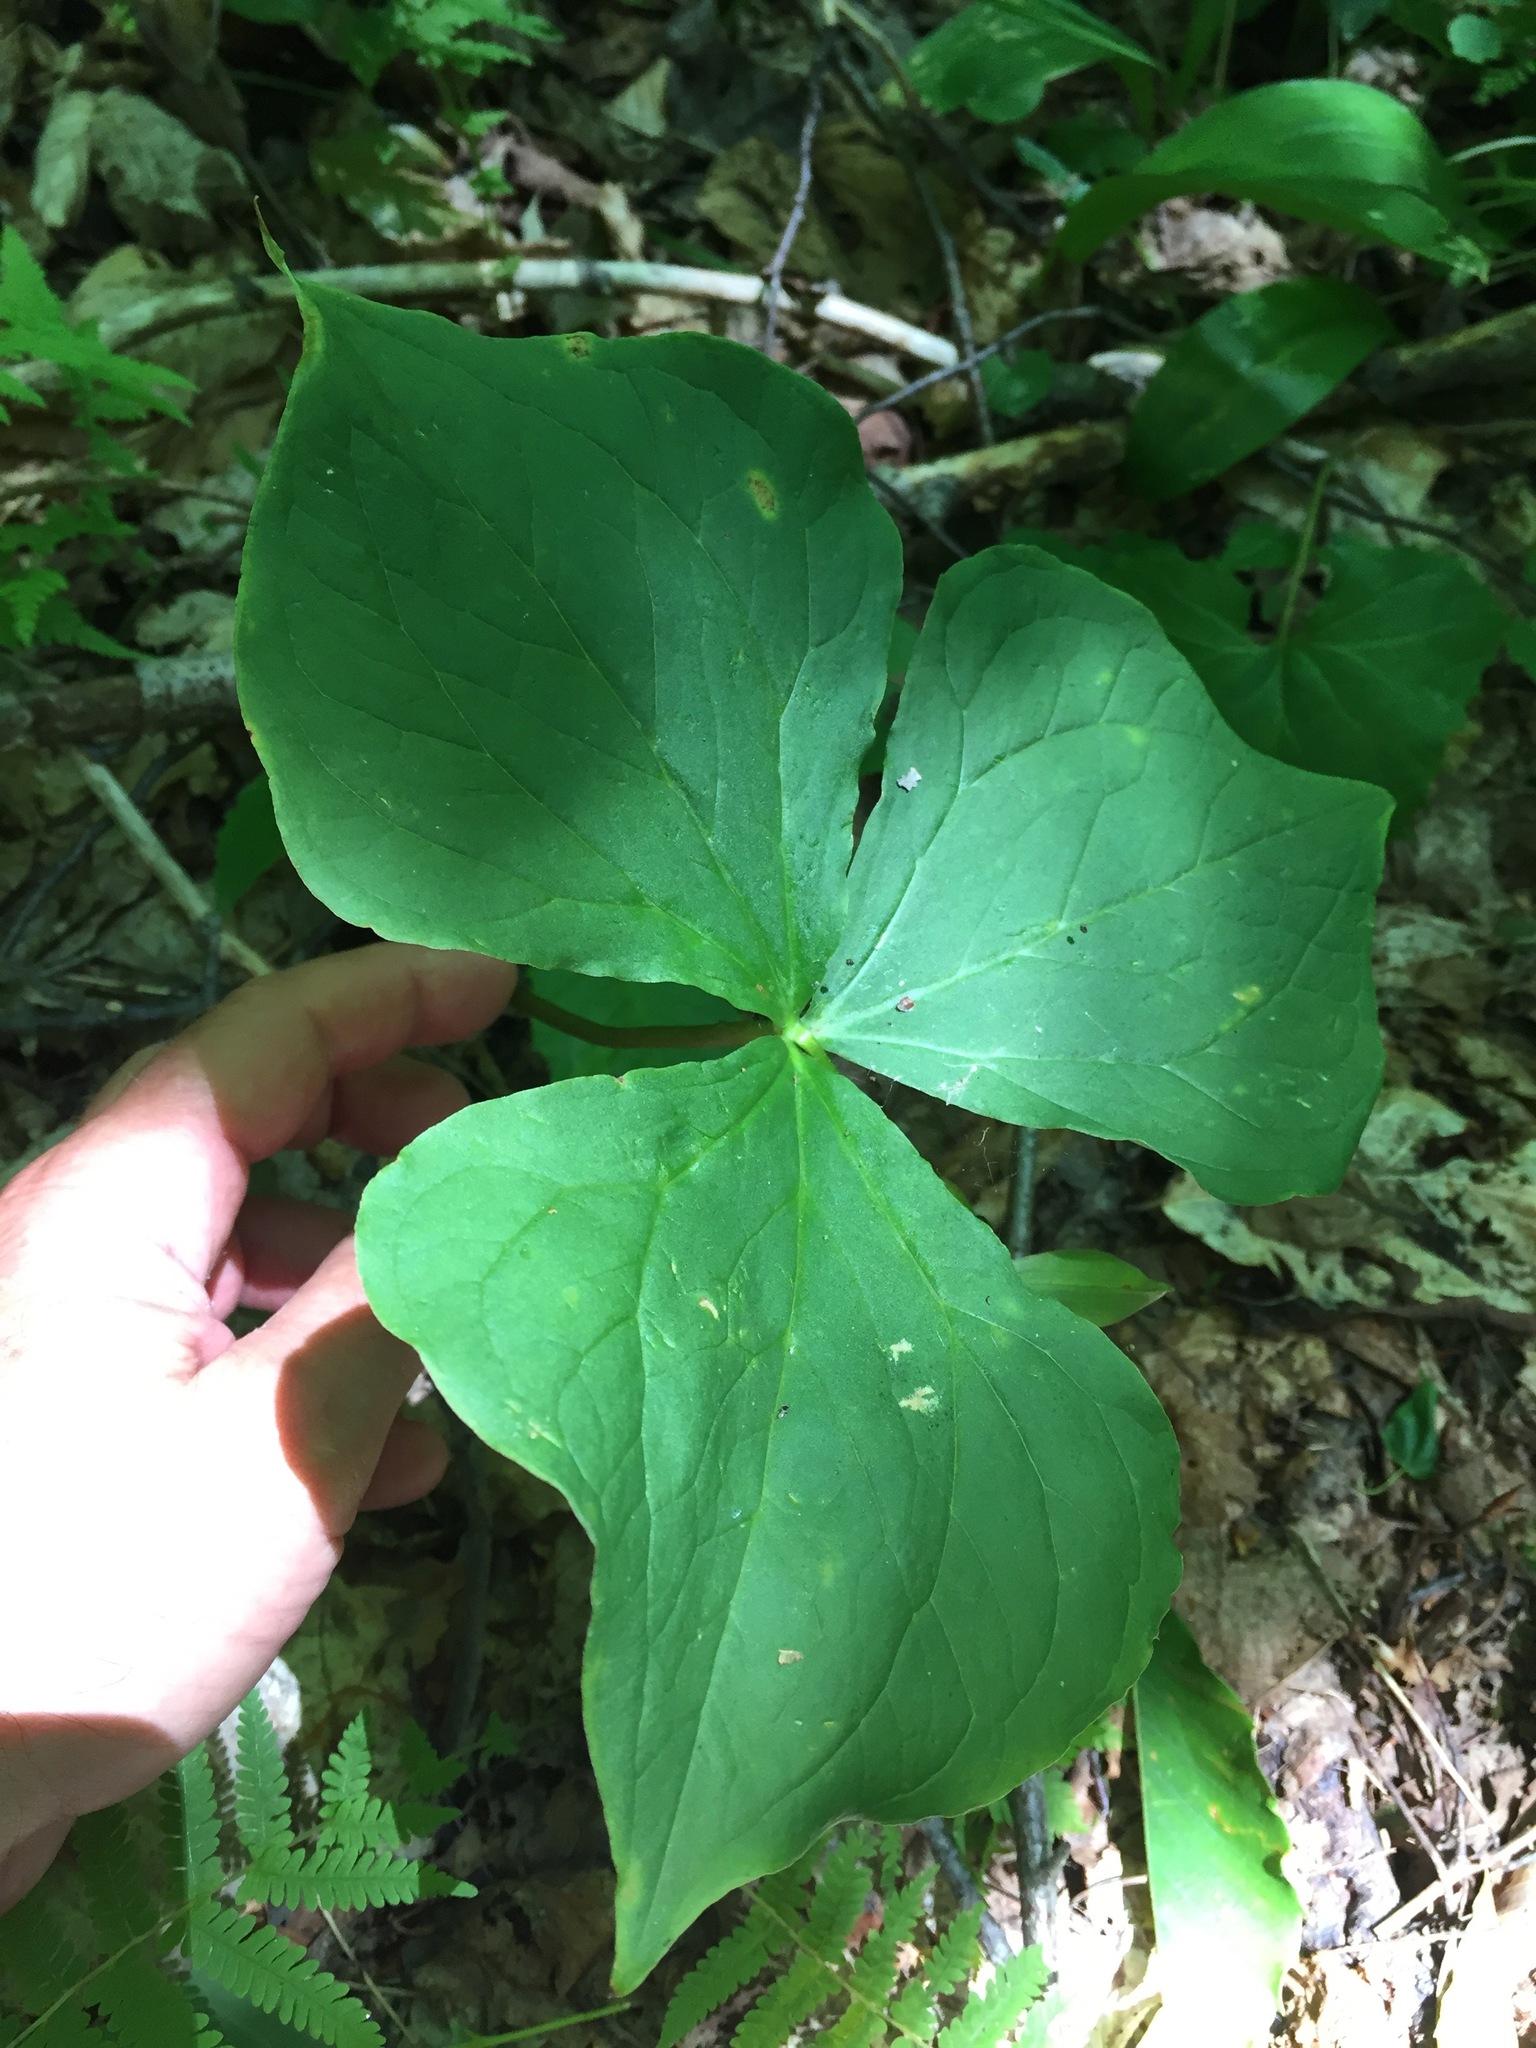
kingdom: Plantae
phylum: Tracheophyta
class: Liliopsida
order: Liliales
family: Melanthiaceae
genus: Trillium
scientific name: Trillium erectum
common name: Purple trillium
